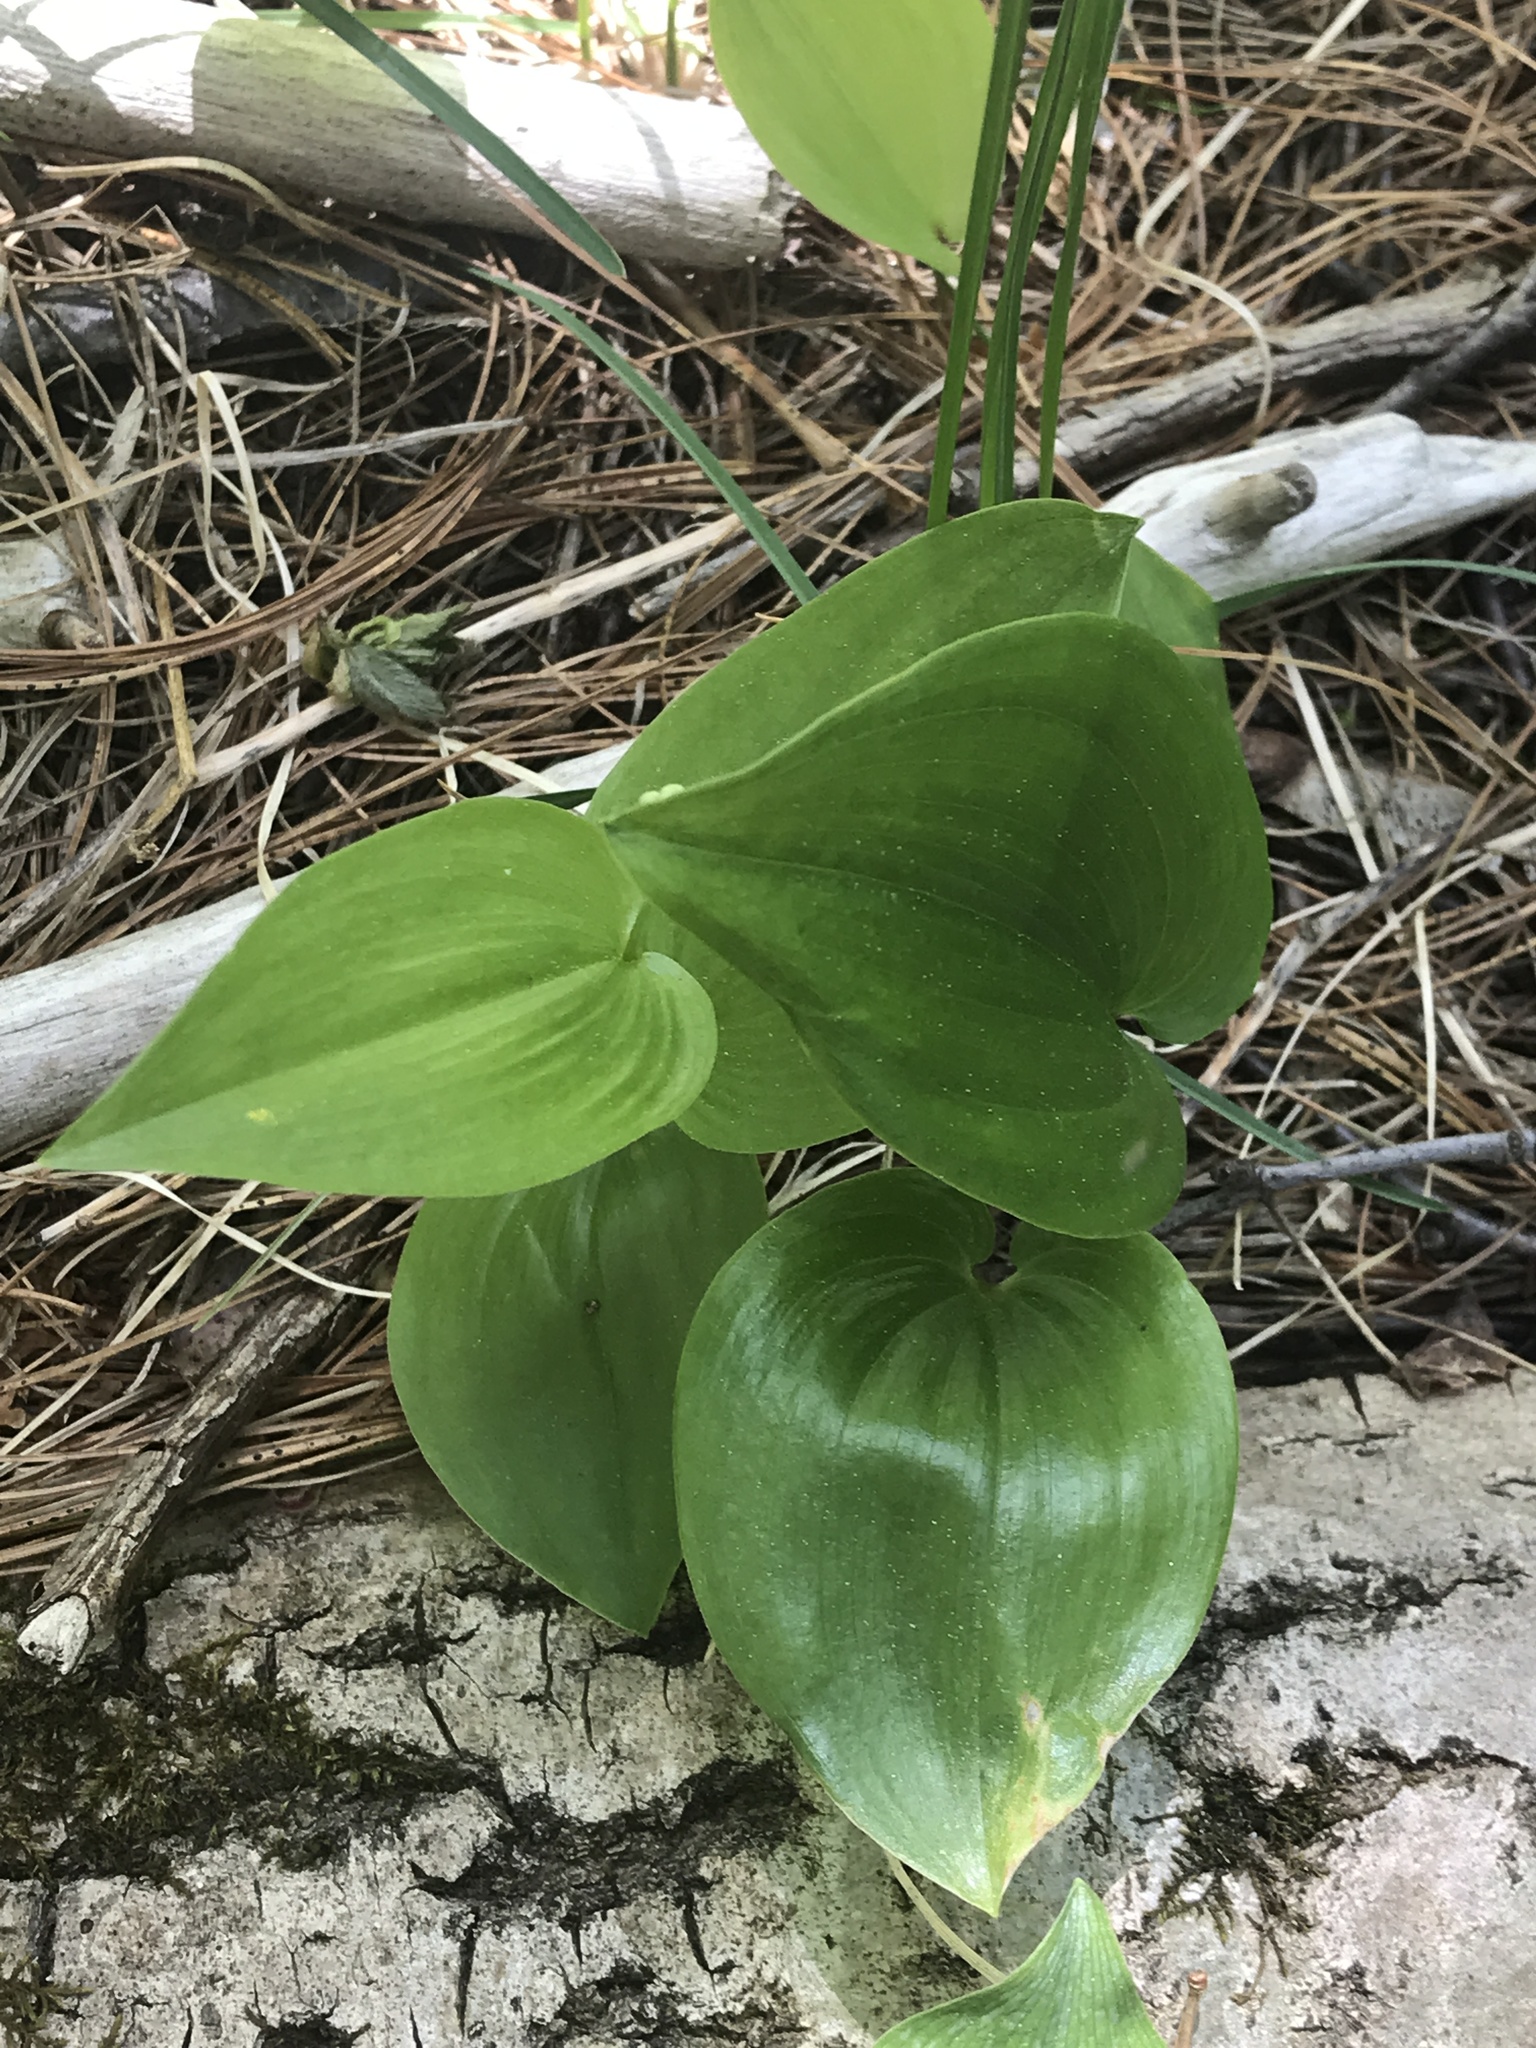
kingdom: Plantae
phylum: Tracheophyta
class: Liliopsida
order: Asparagales
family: Asparagaceae
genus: Maianthemum
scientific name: Maianthemum canadense
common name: False lily-of-the-valley
